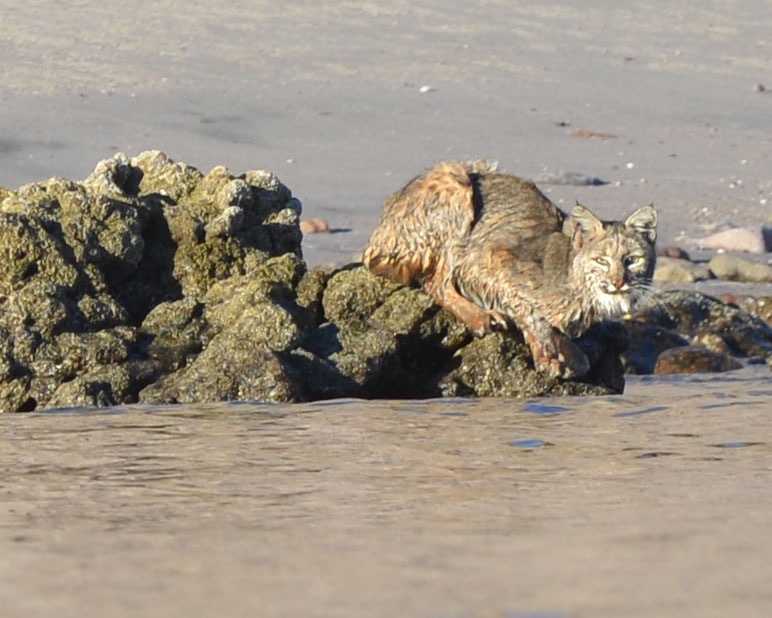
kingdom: Animalia
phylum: Chordata
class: Mammalia
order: Carnivora
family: Felidae
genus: Lynx
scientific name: Lynx rufus
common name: Bobcat
